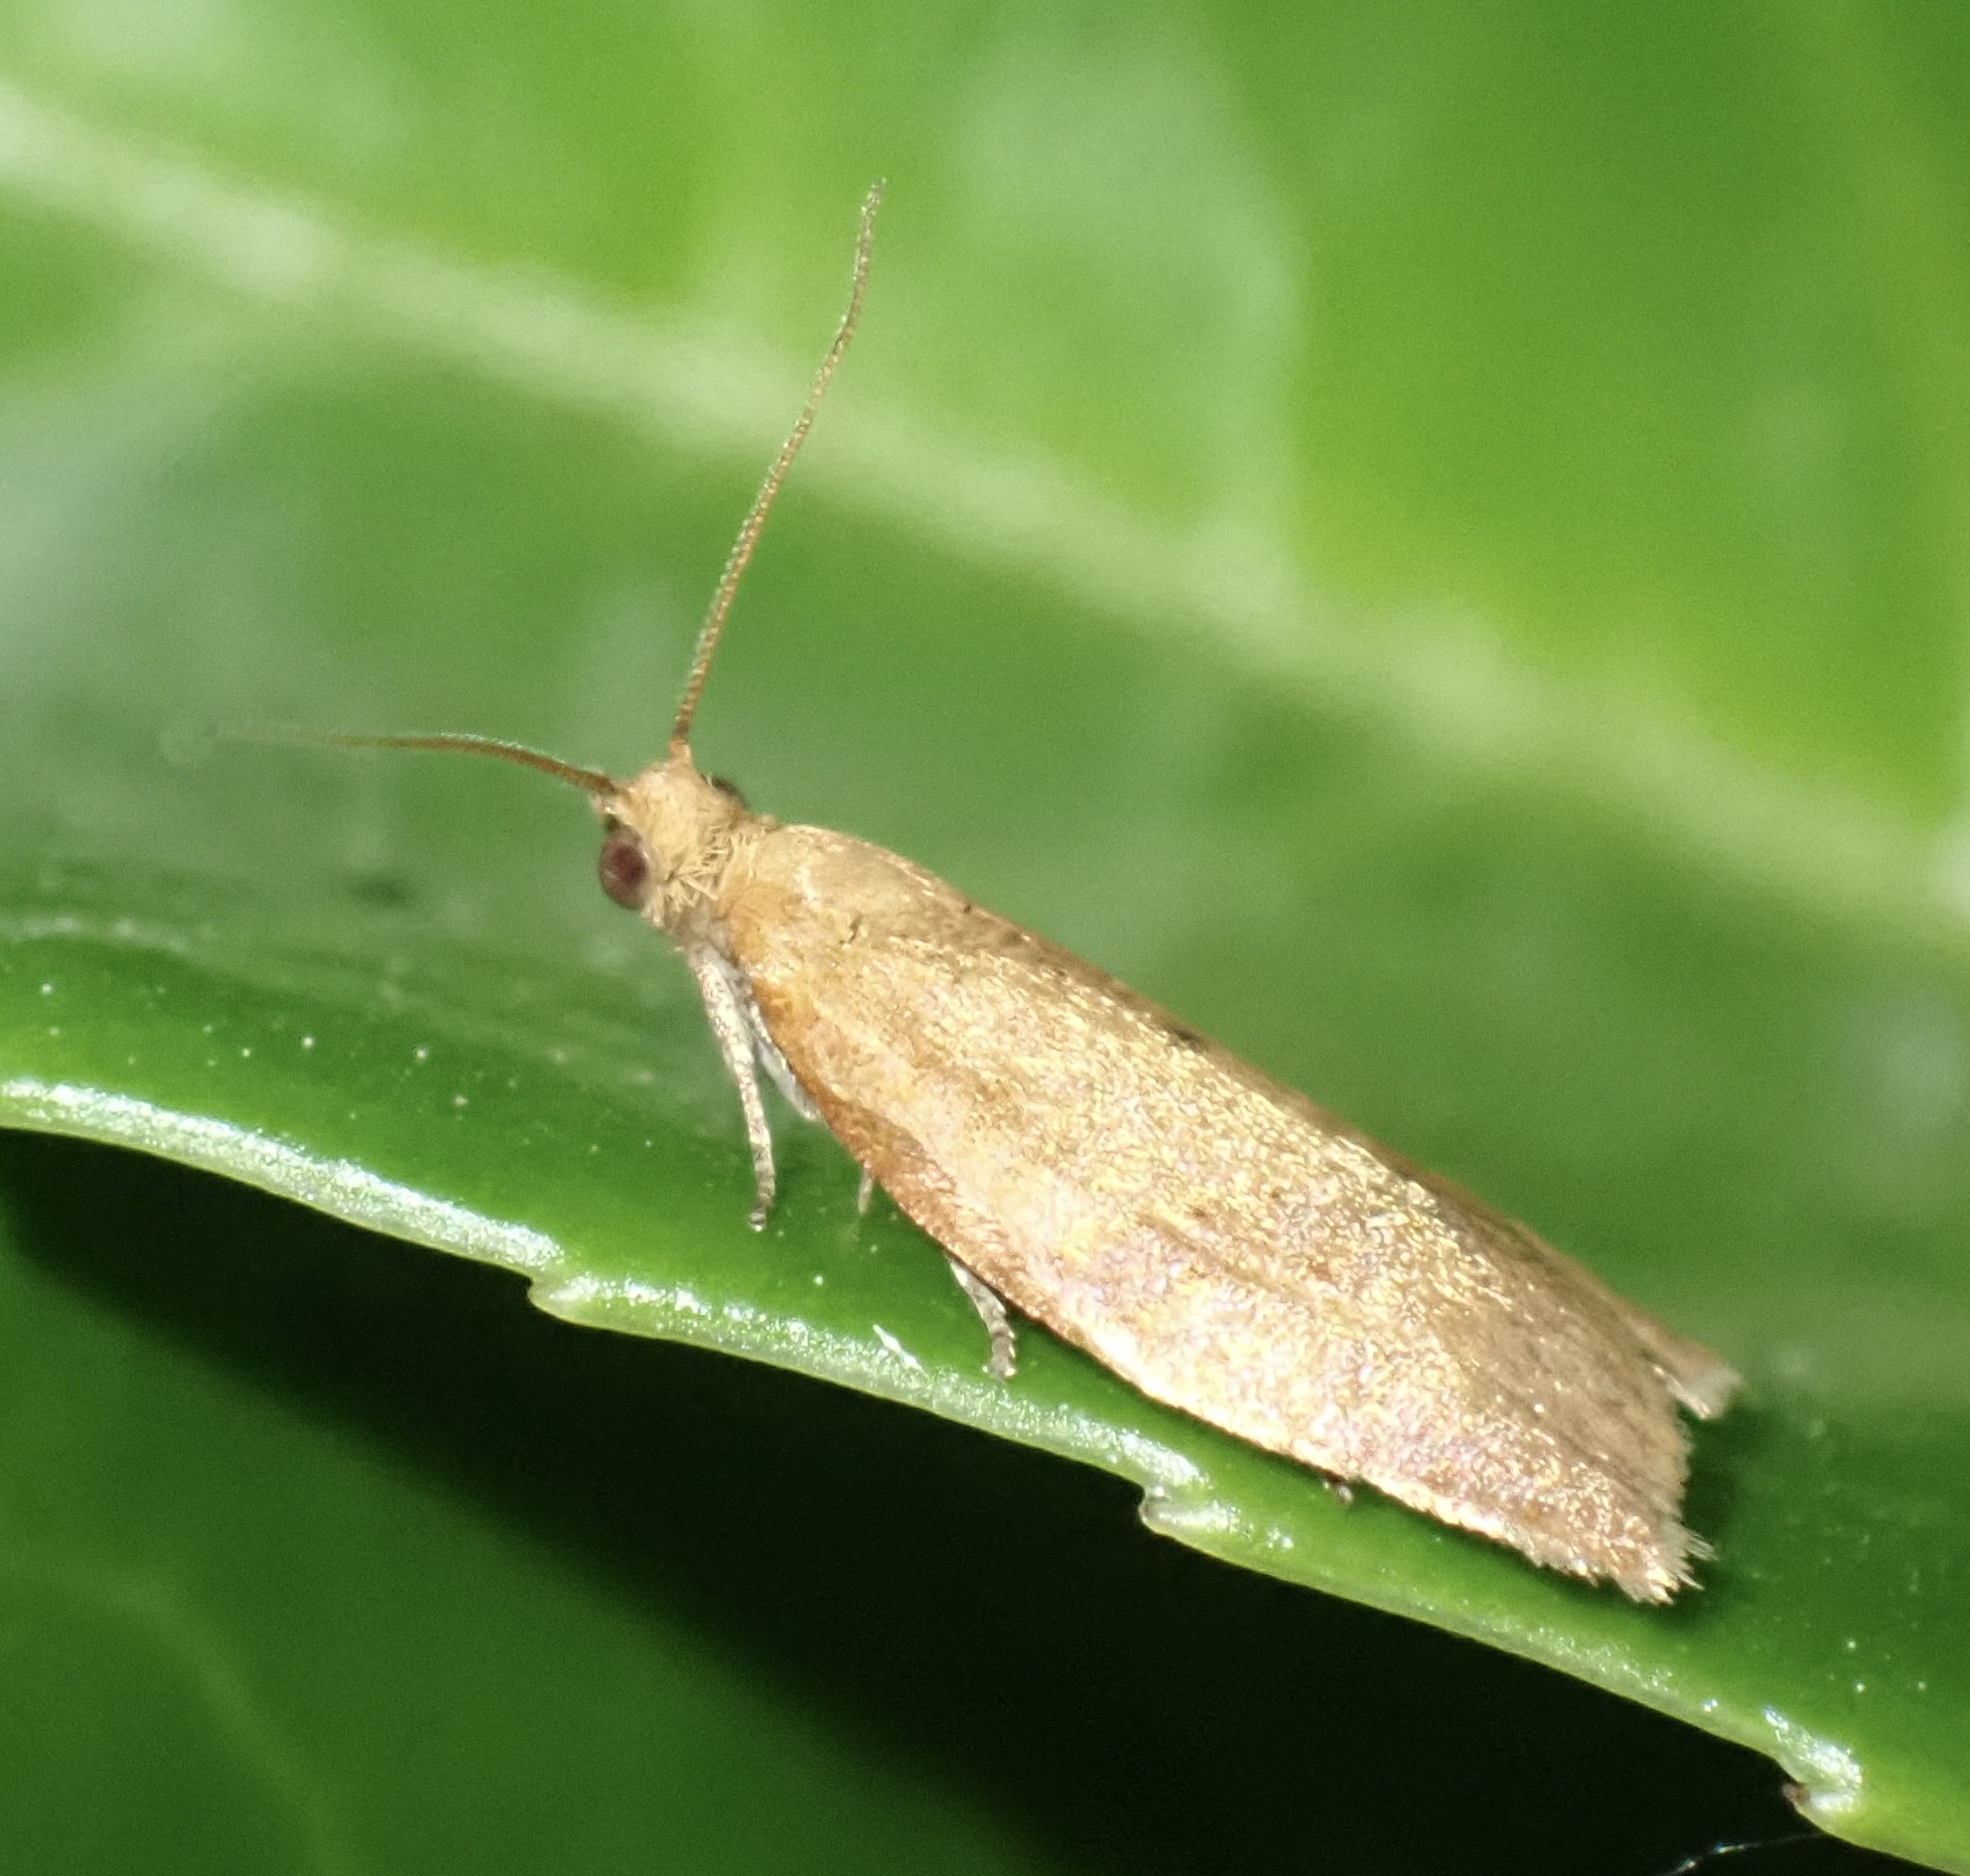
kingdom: Animalia
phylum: Arthropoda
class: Insecta
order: Lepidoptera
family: Tortricidae
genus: Clepsis
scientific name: Clepsis consimilana
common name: Privet tortrix
